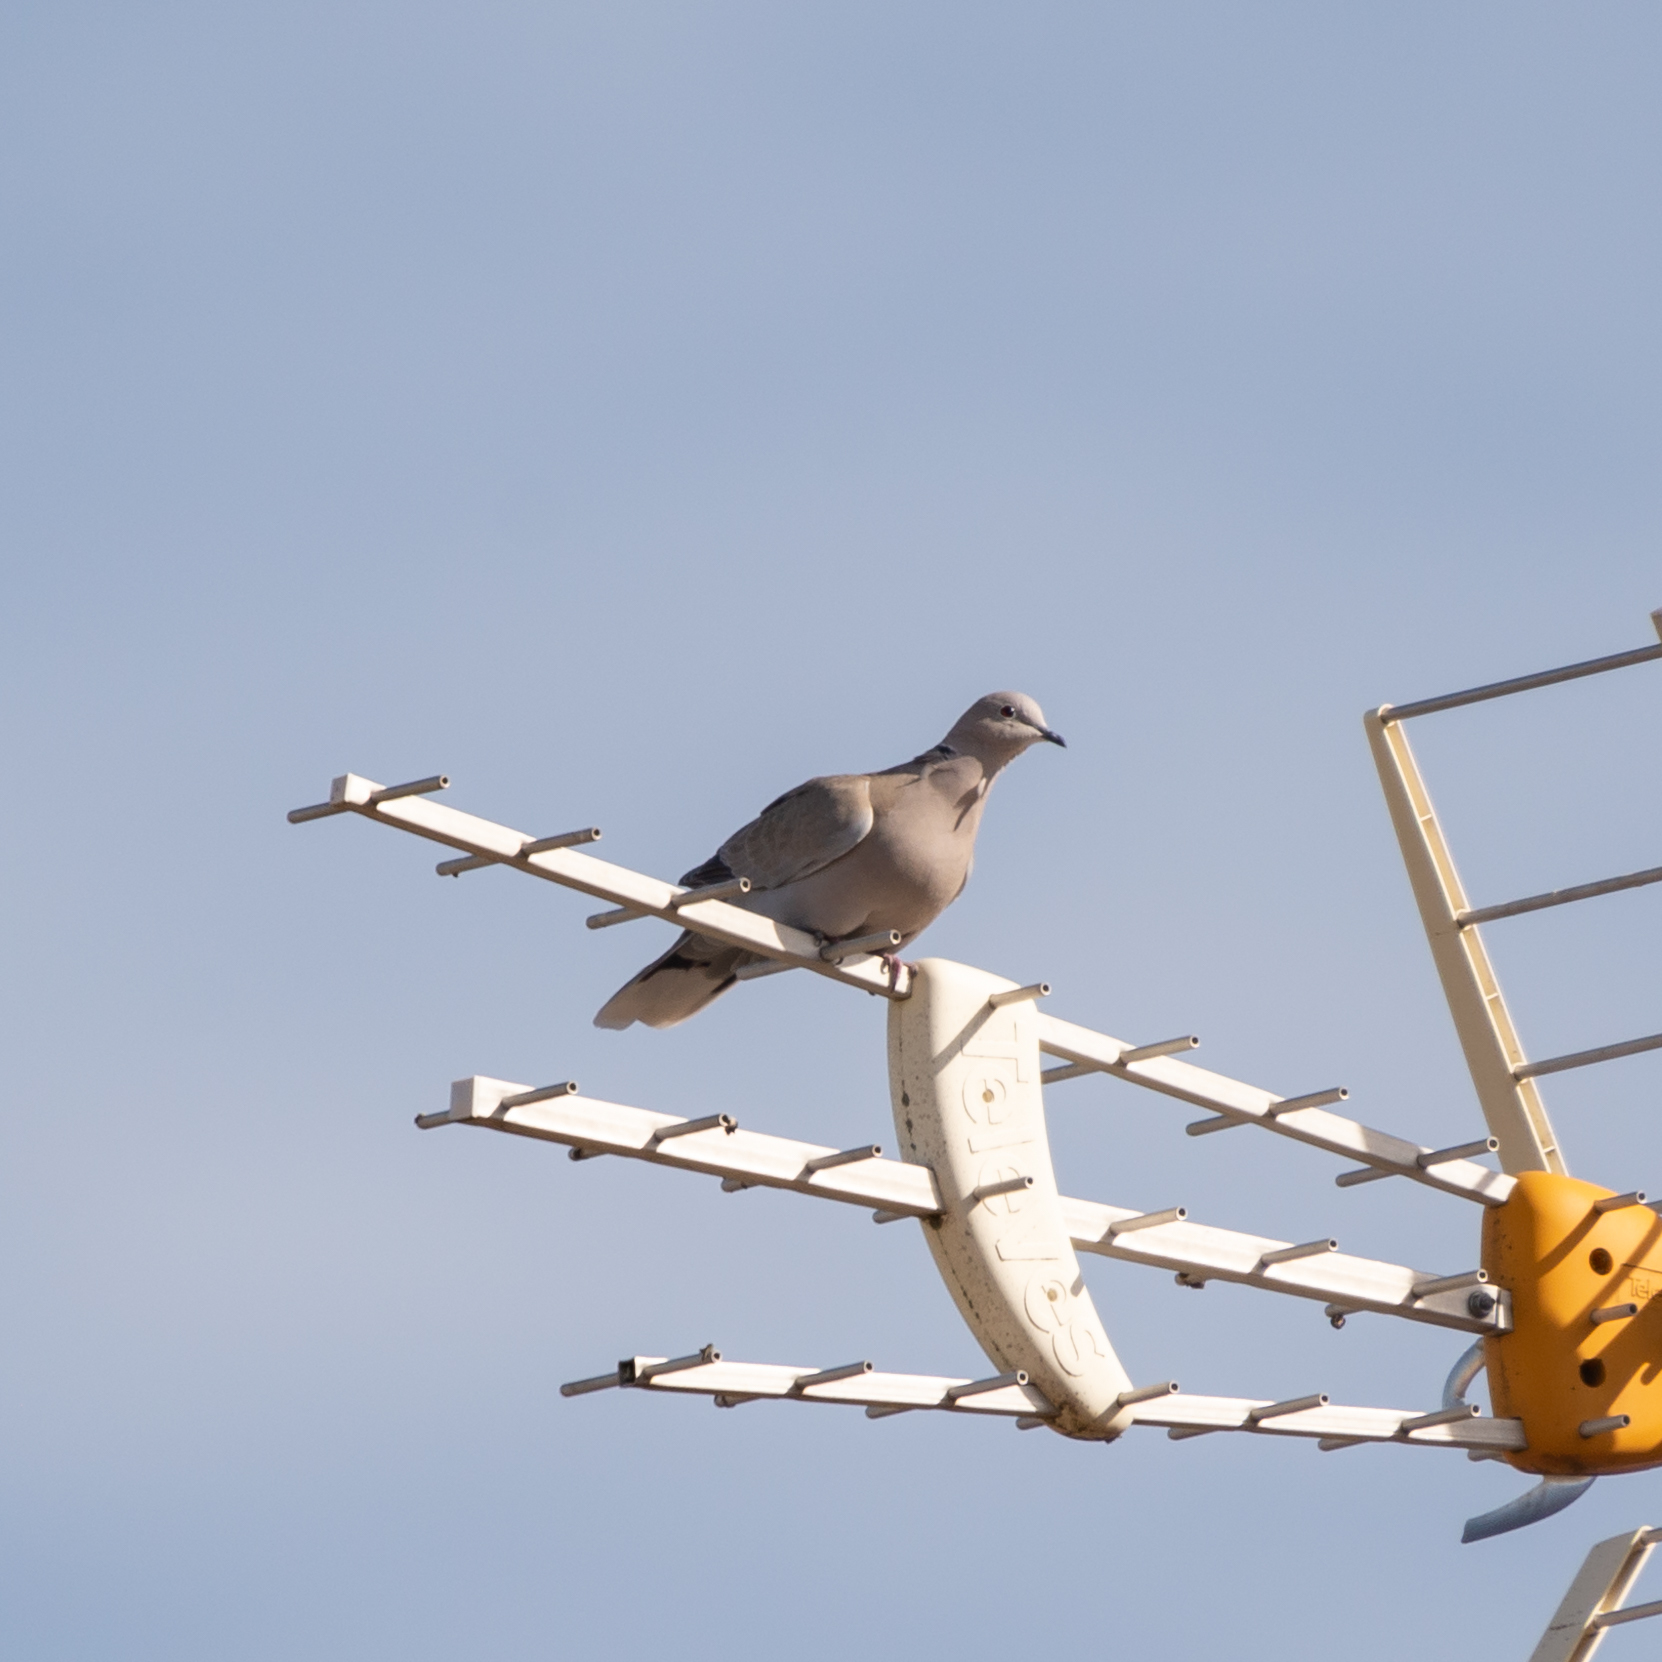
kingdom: Animalia
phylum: Chordata
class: Aves
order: Columbiformes
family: Columbidae
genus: Streptopelia
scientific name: Streptopelia decaocto
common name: Eurasian collared dove
